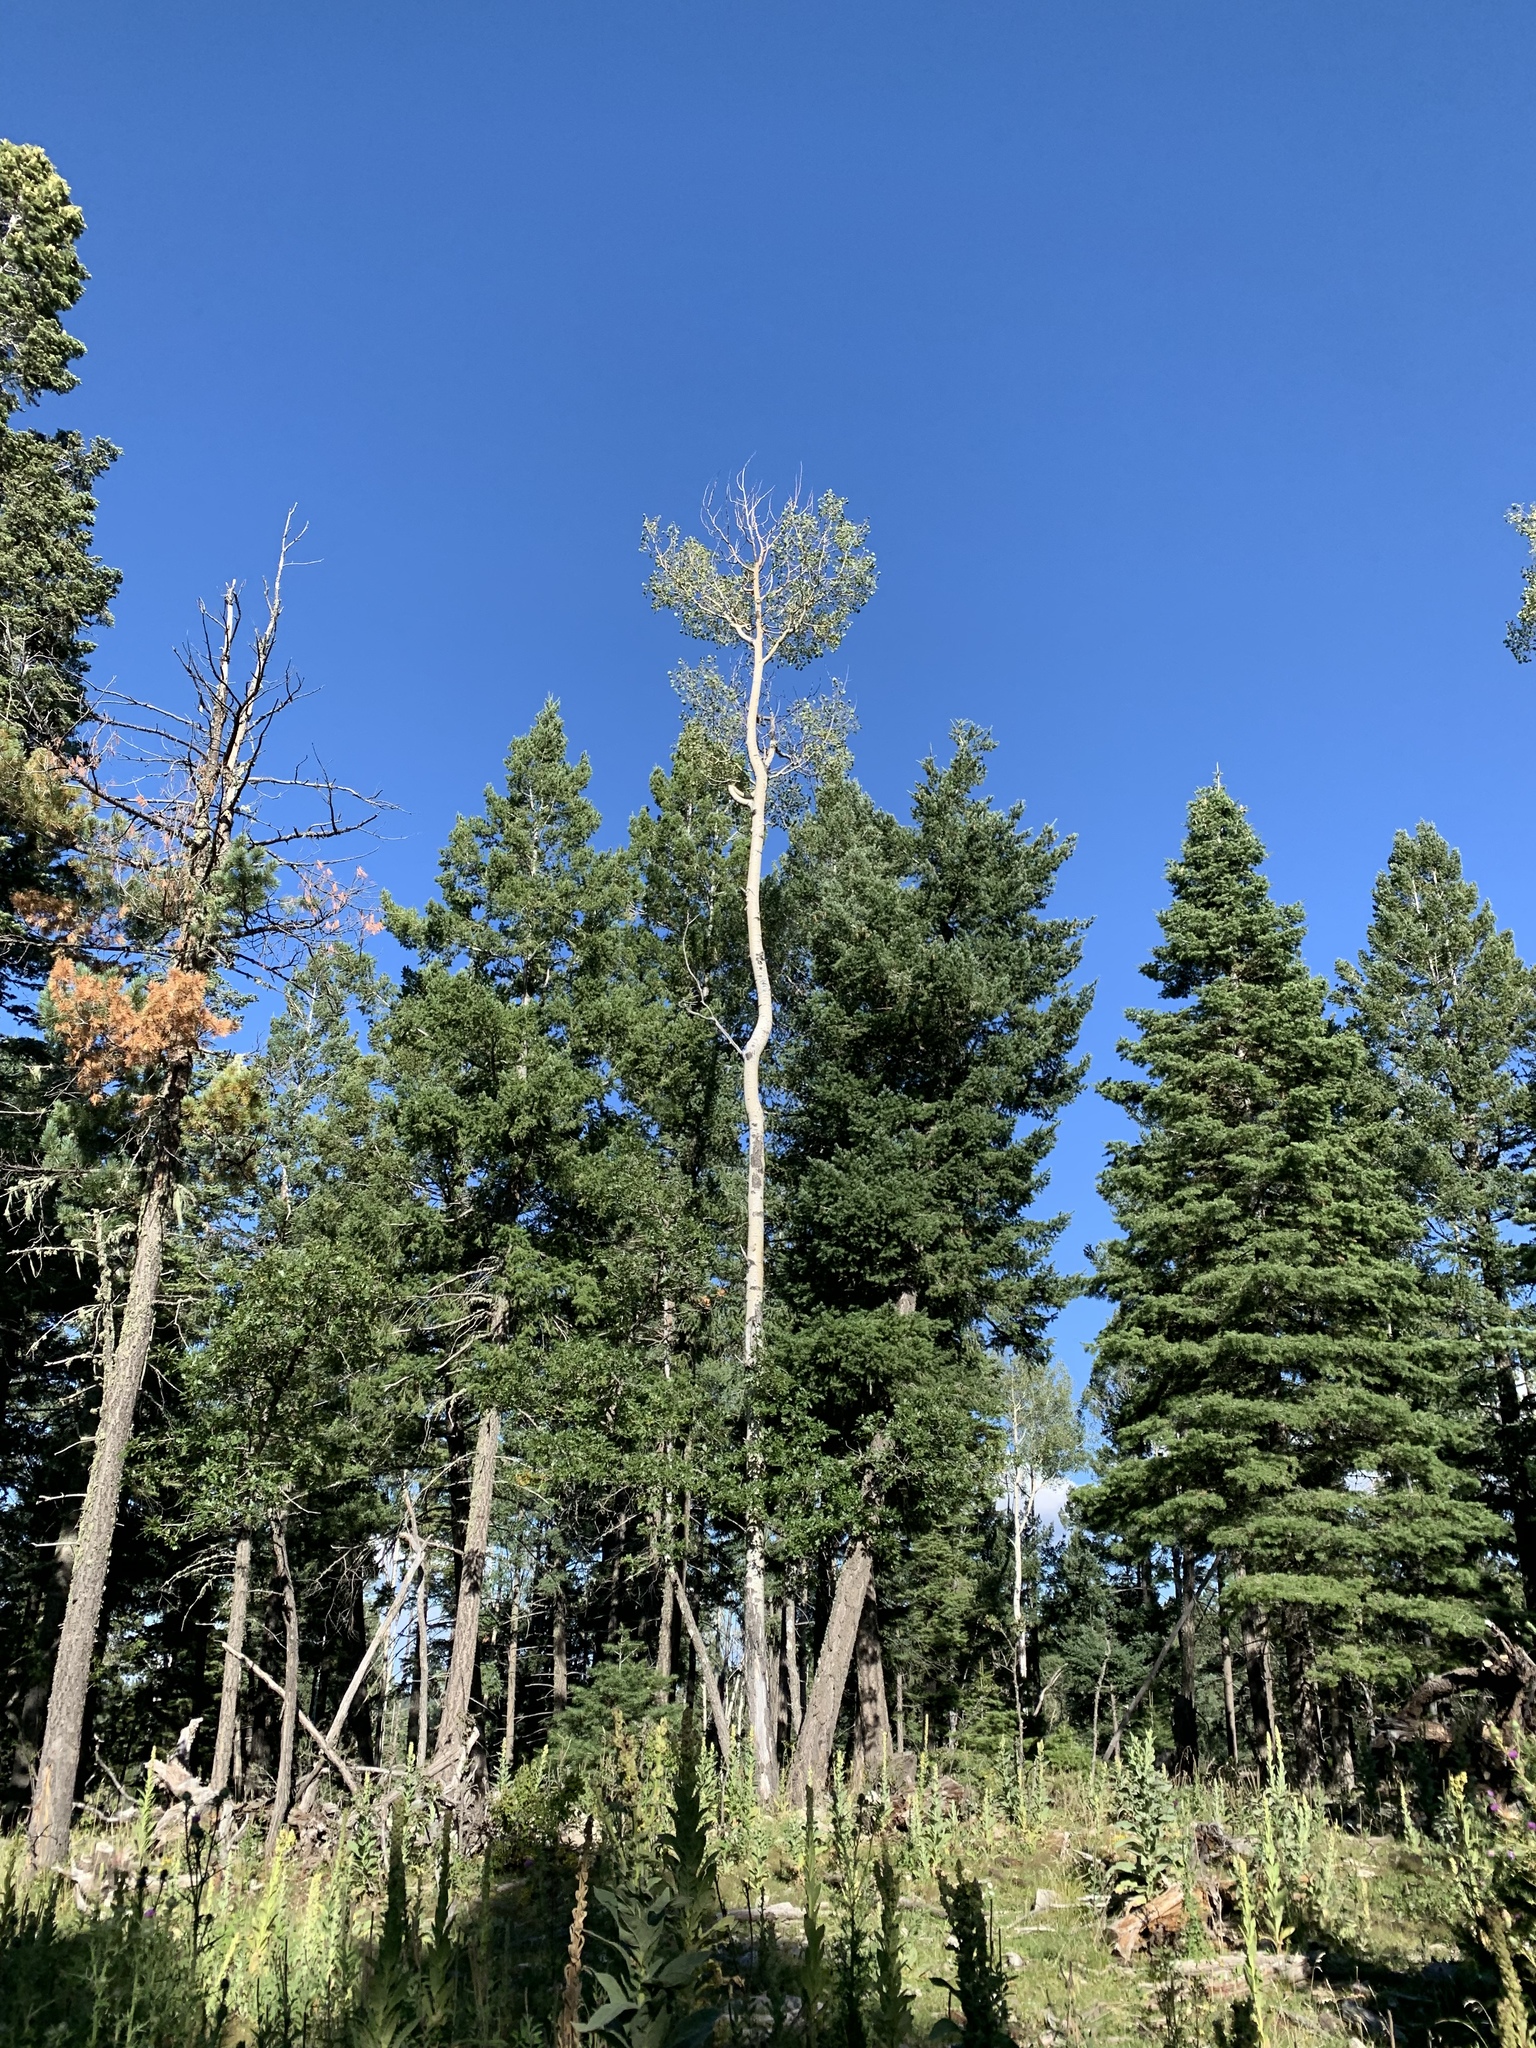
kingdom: Plantae
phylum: Tracheophyta
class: Magnoliopsida
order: Malpighiales
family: Salicaceae
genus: Populus
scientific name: Populus tremuloides
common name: Quaking aspen
